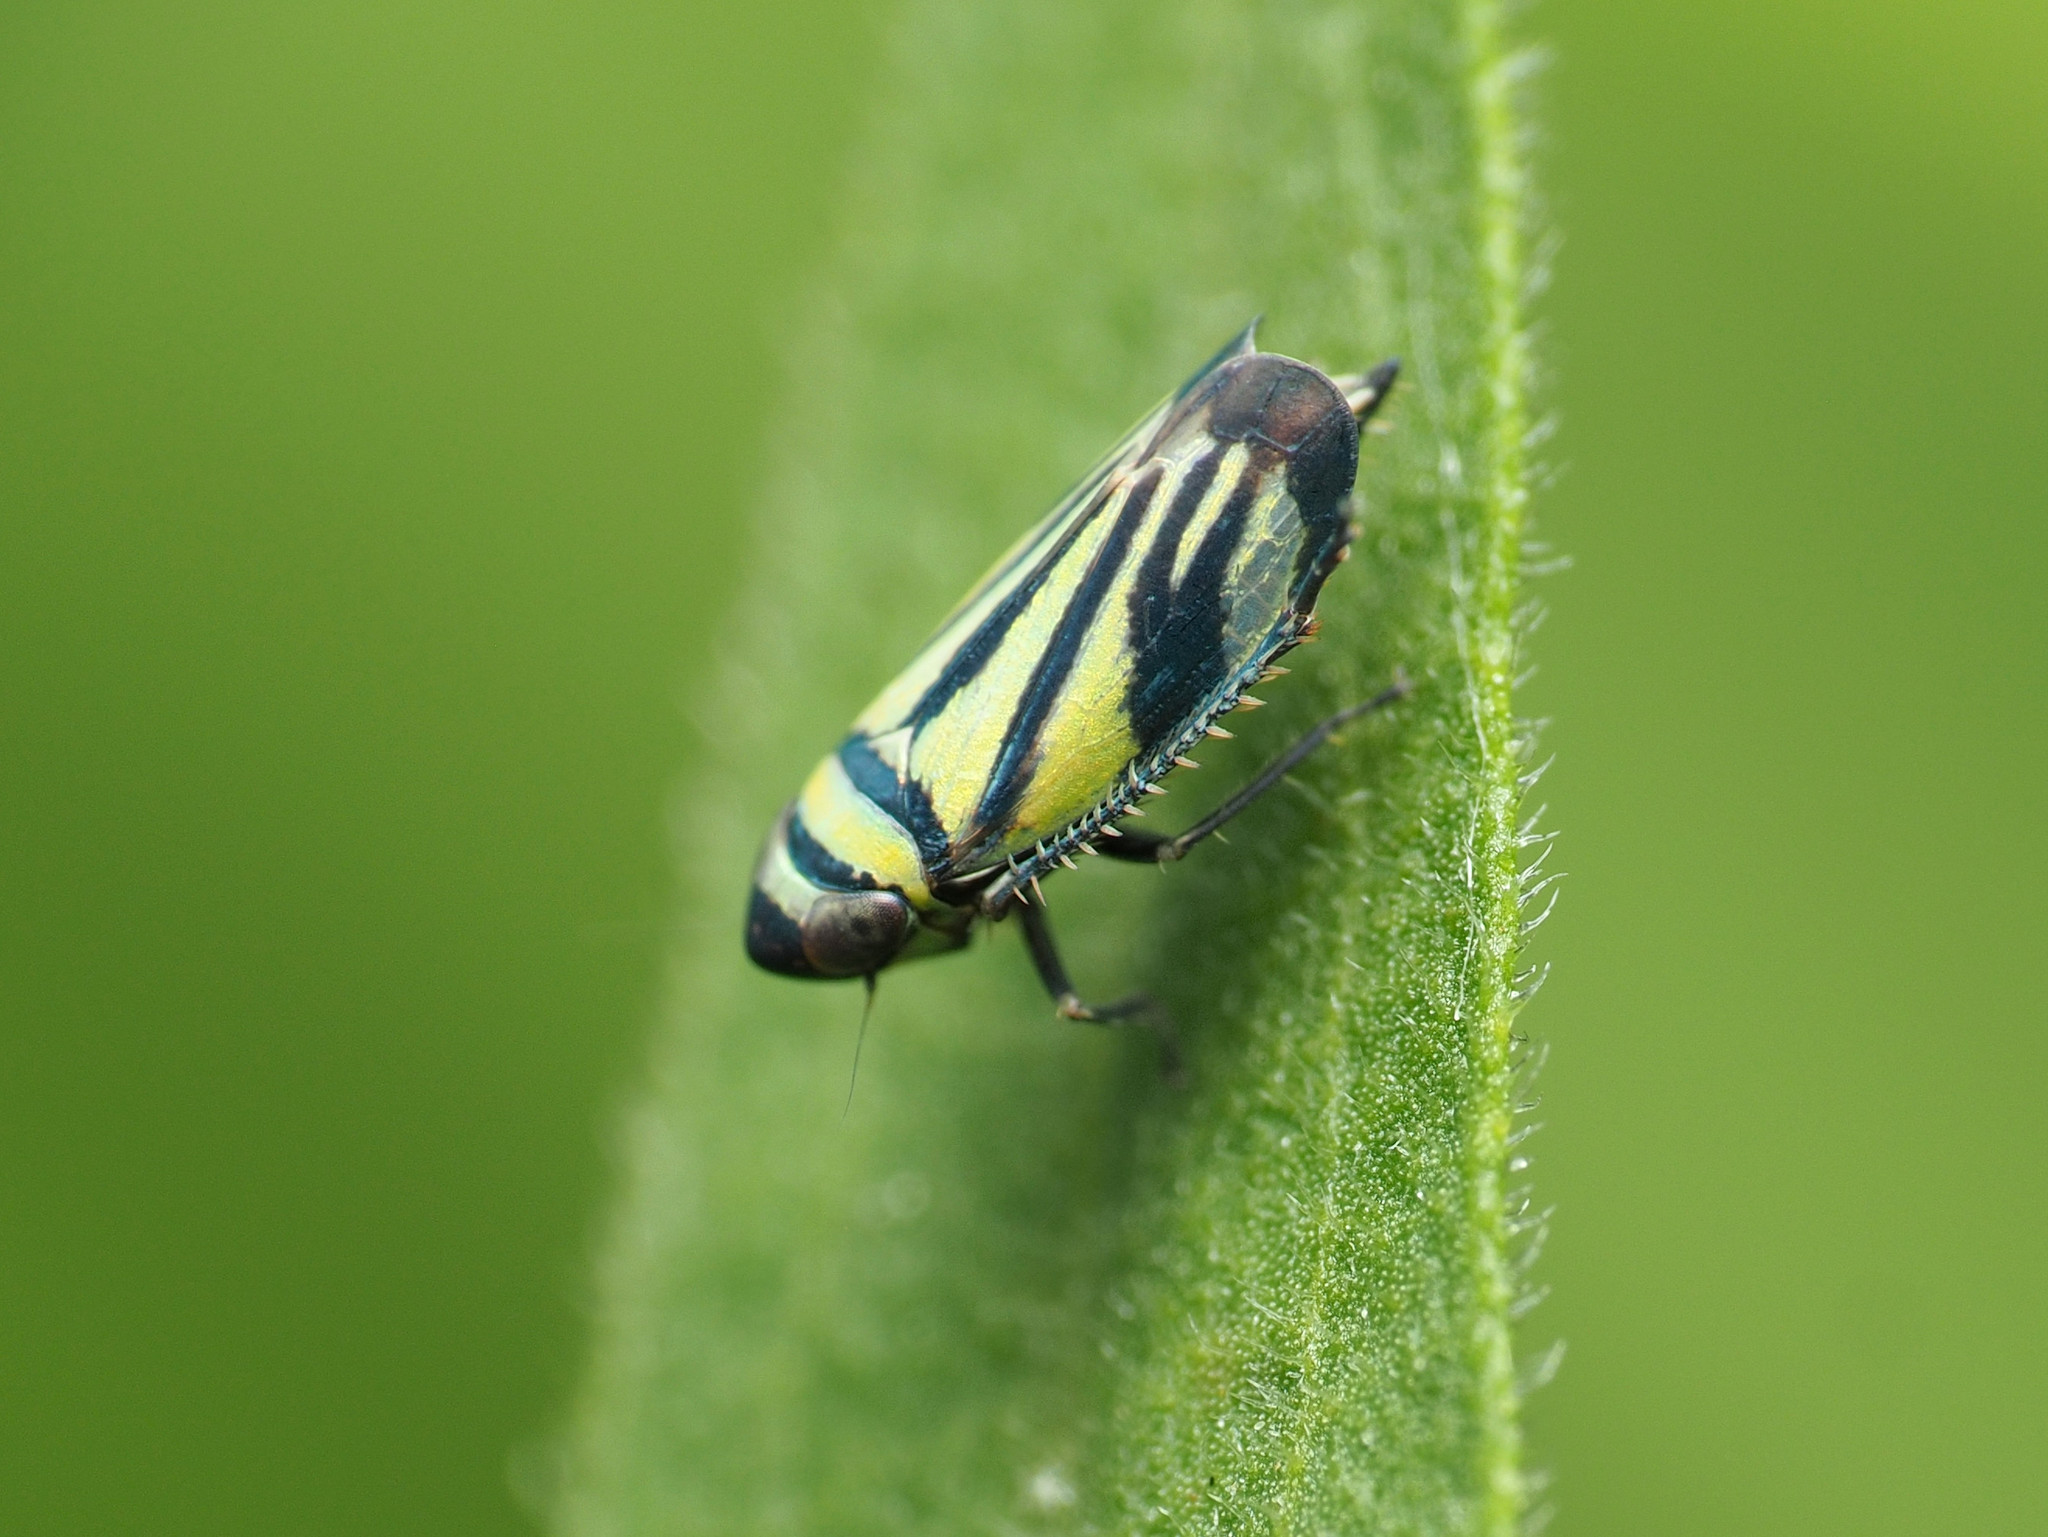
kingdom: Animalia
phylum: Arthropoda
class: Insecta
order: Hemiptera
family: Cicadellidae
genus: Stirellus
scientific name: Stirellus bicolor
